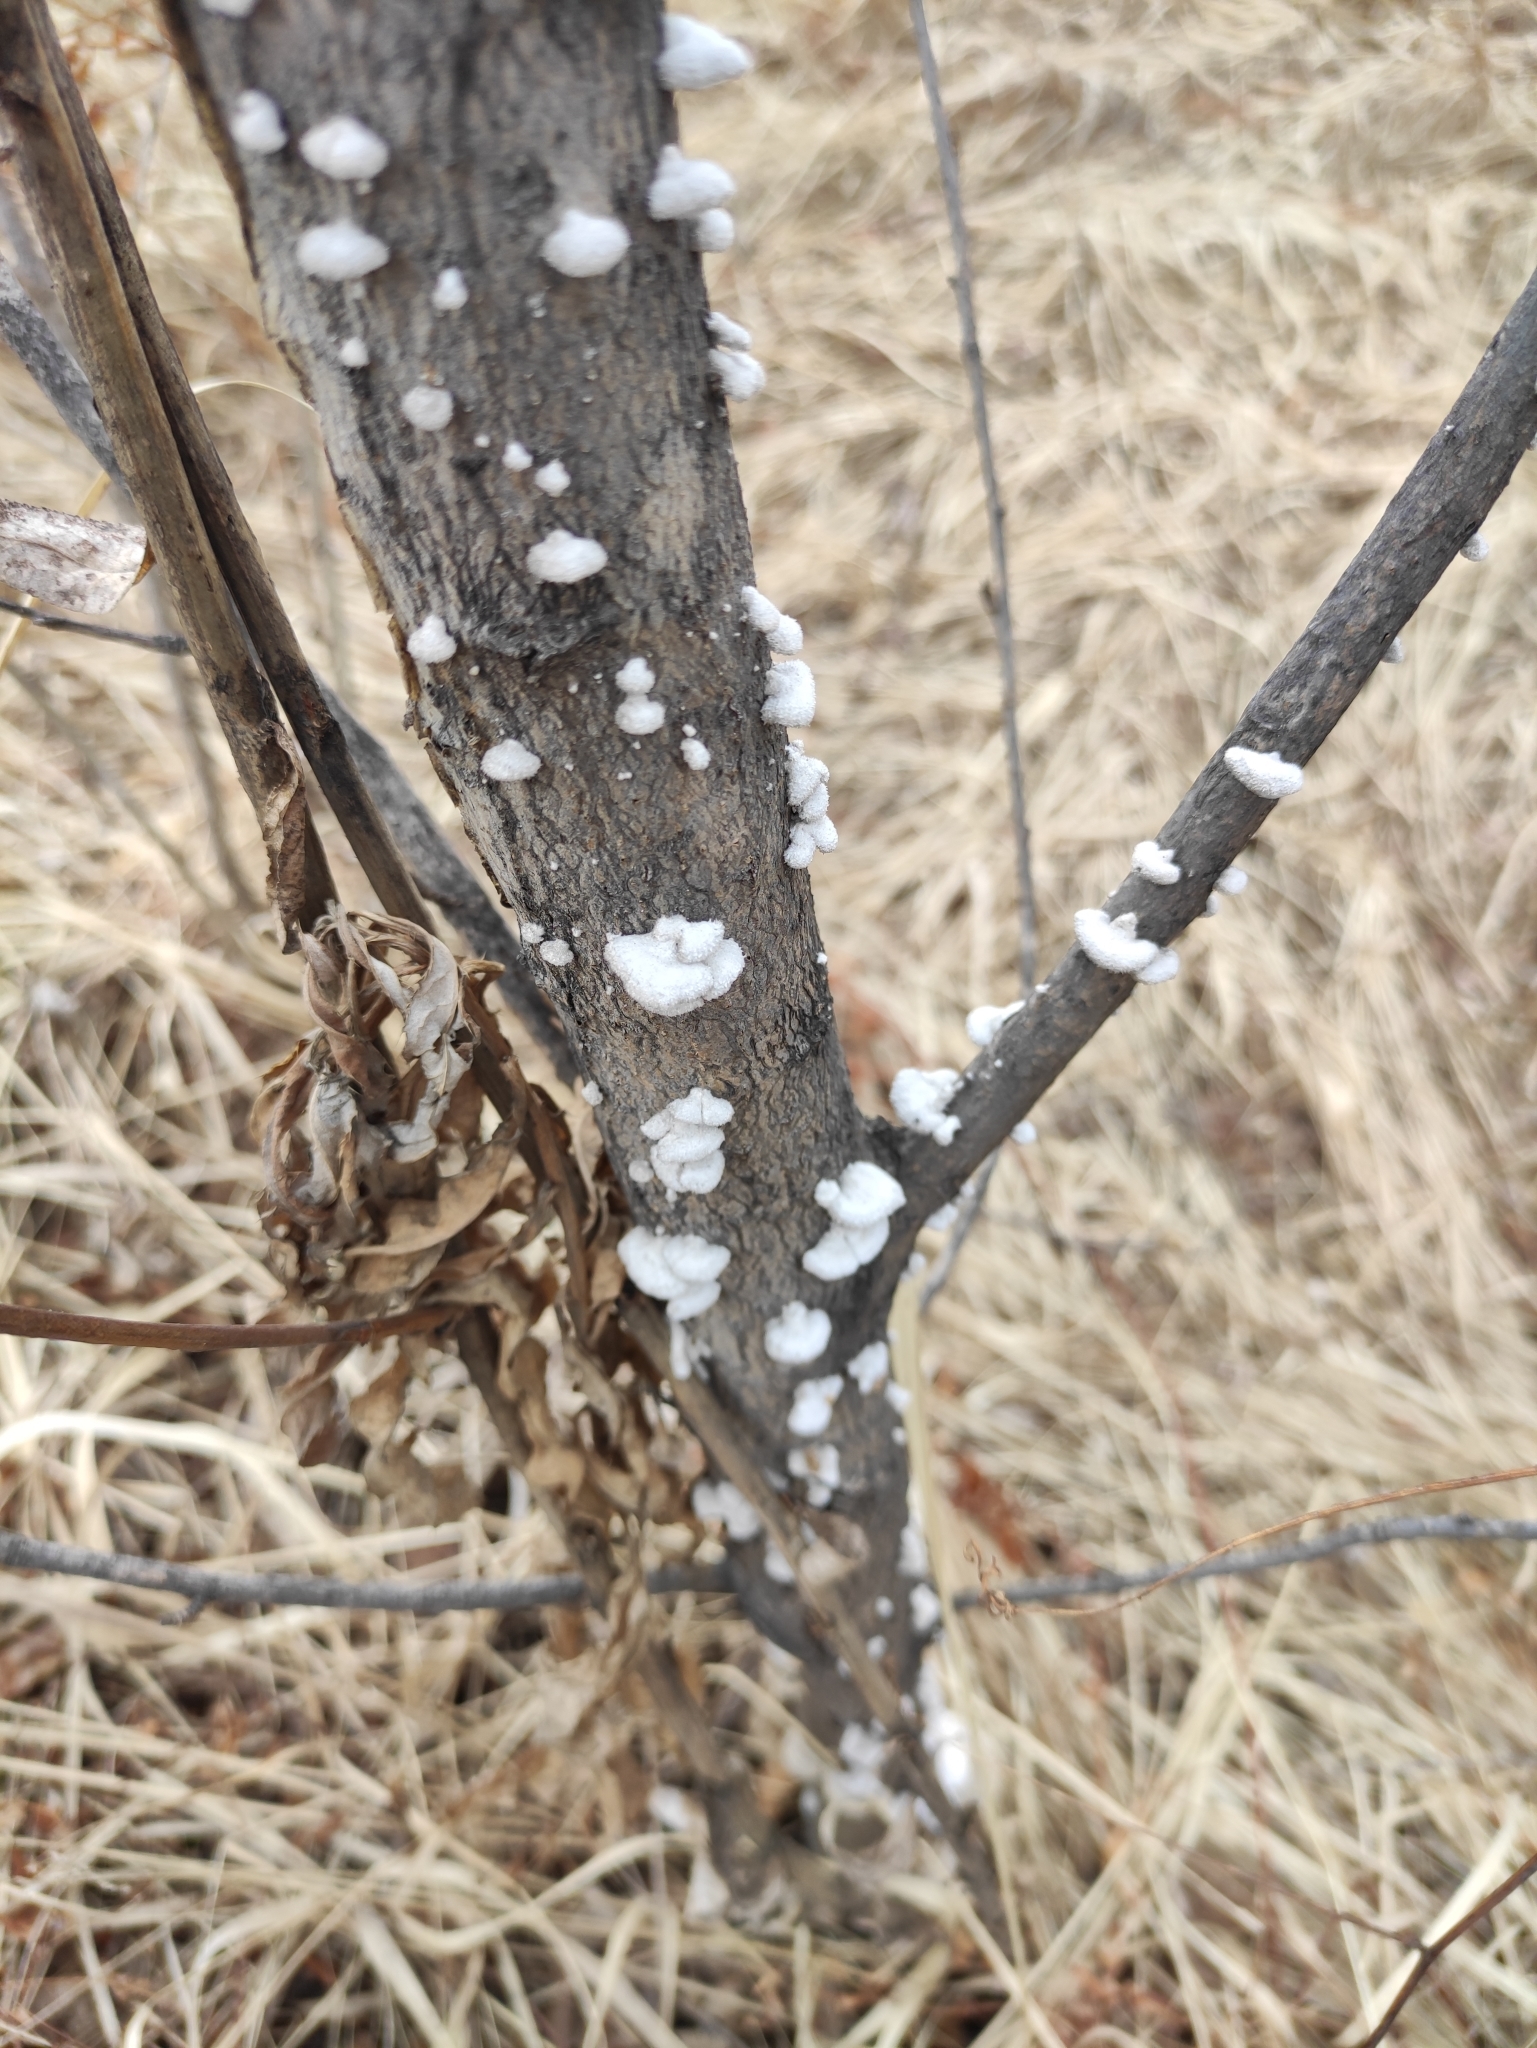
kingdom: Fungi
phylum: Basidiomycota
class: Agaricomycetes
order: Agaricales
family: Schizophyllaceae
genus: Schizophyllum
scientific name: Schizophyllum commune
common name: Common porecrust
